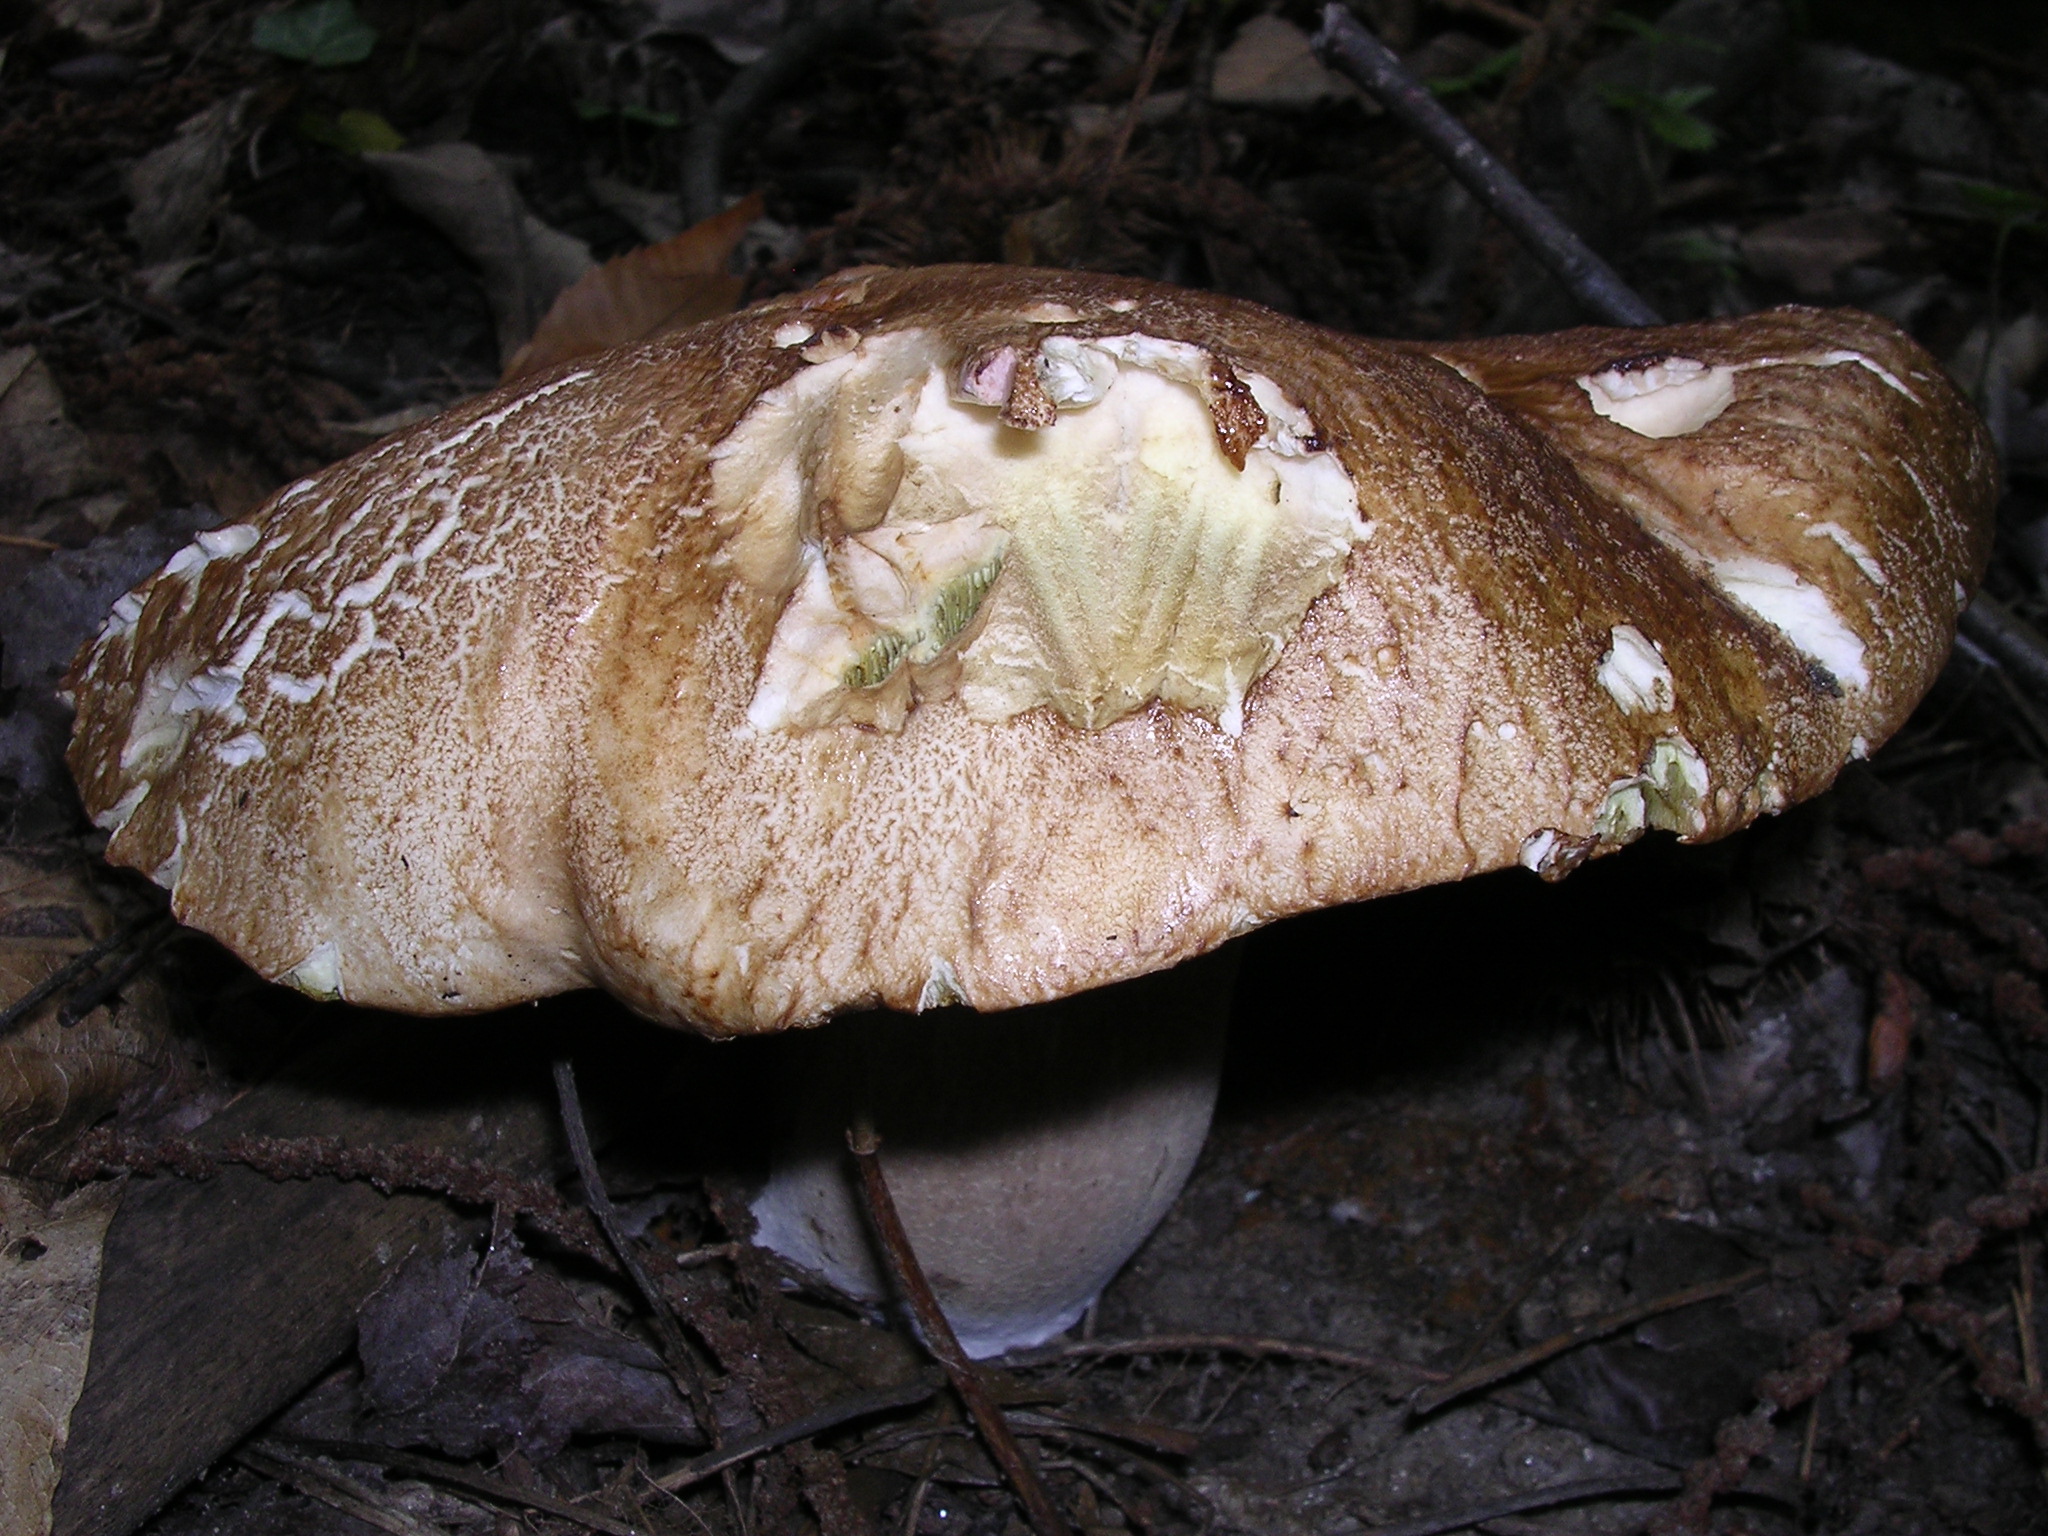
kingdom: Fungi
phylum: Basidiomycota
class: Agaricomycetes
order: Boletales
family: Boletaceae
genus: Boletus
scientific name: Boletus reticulatus
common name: Summer bolete
